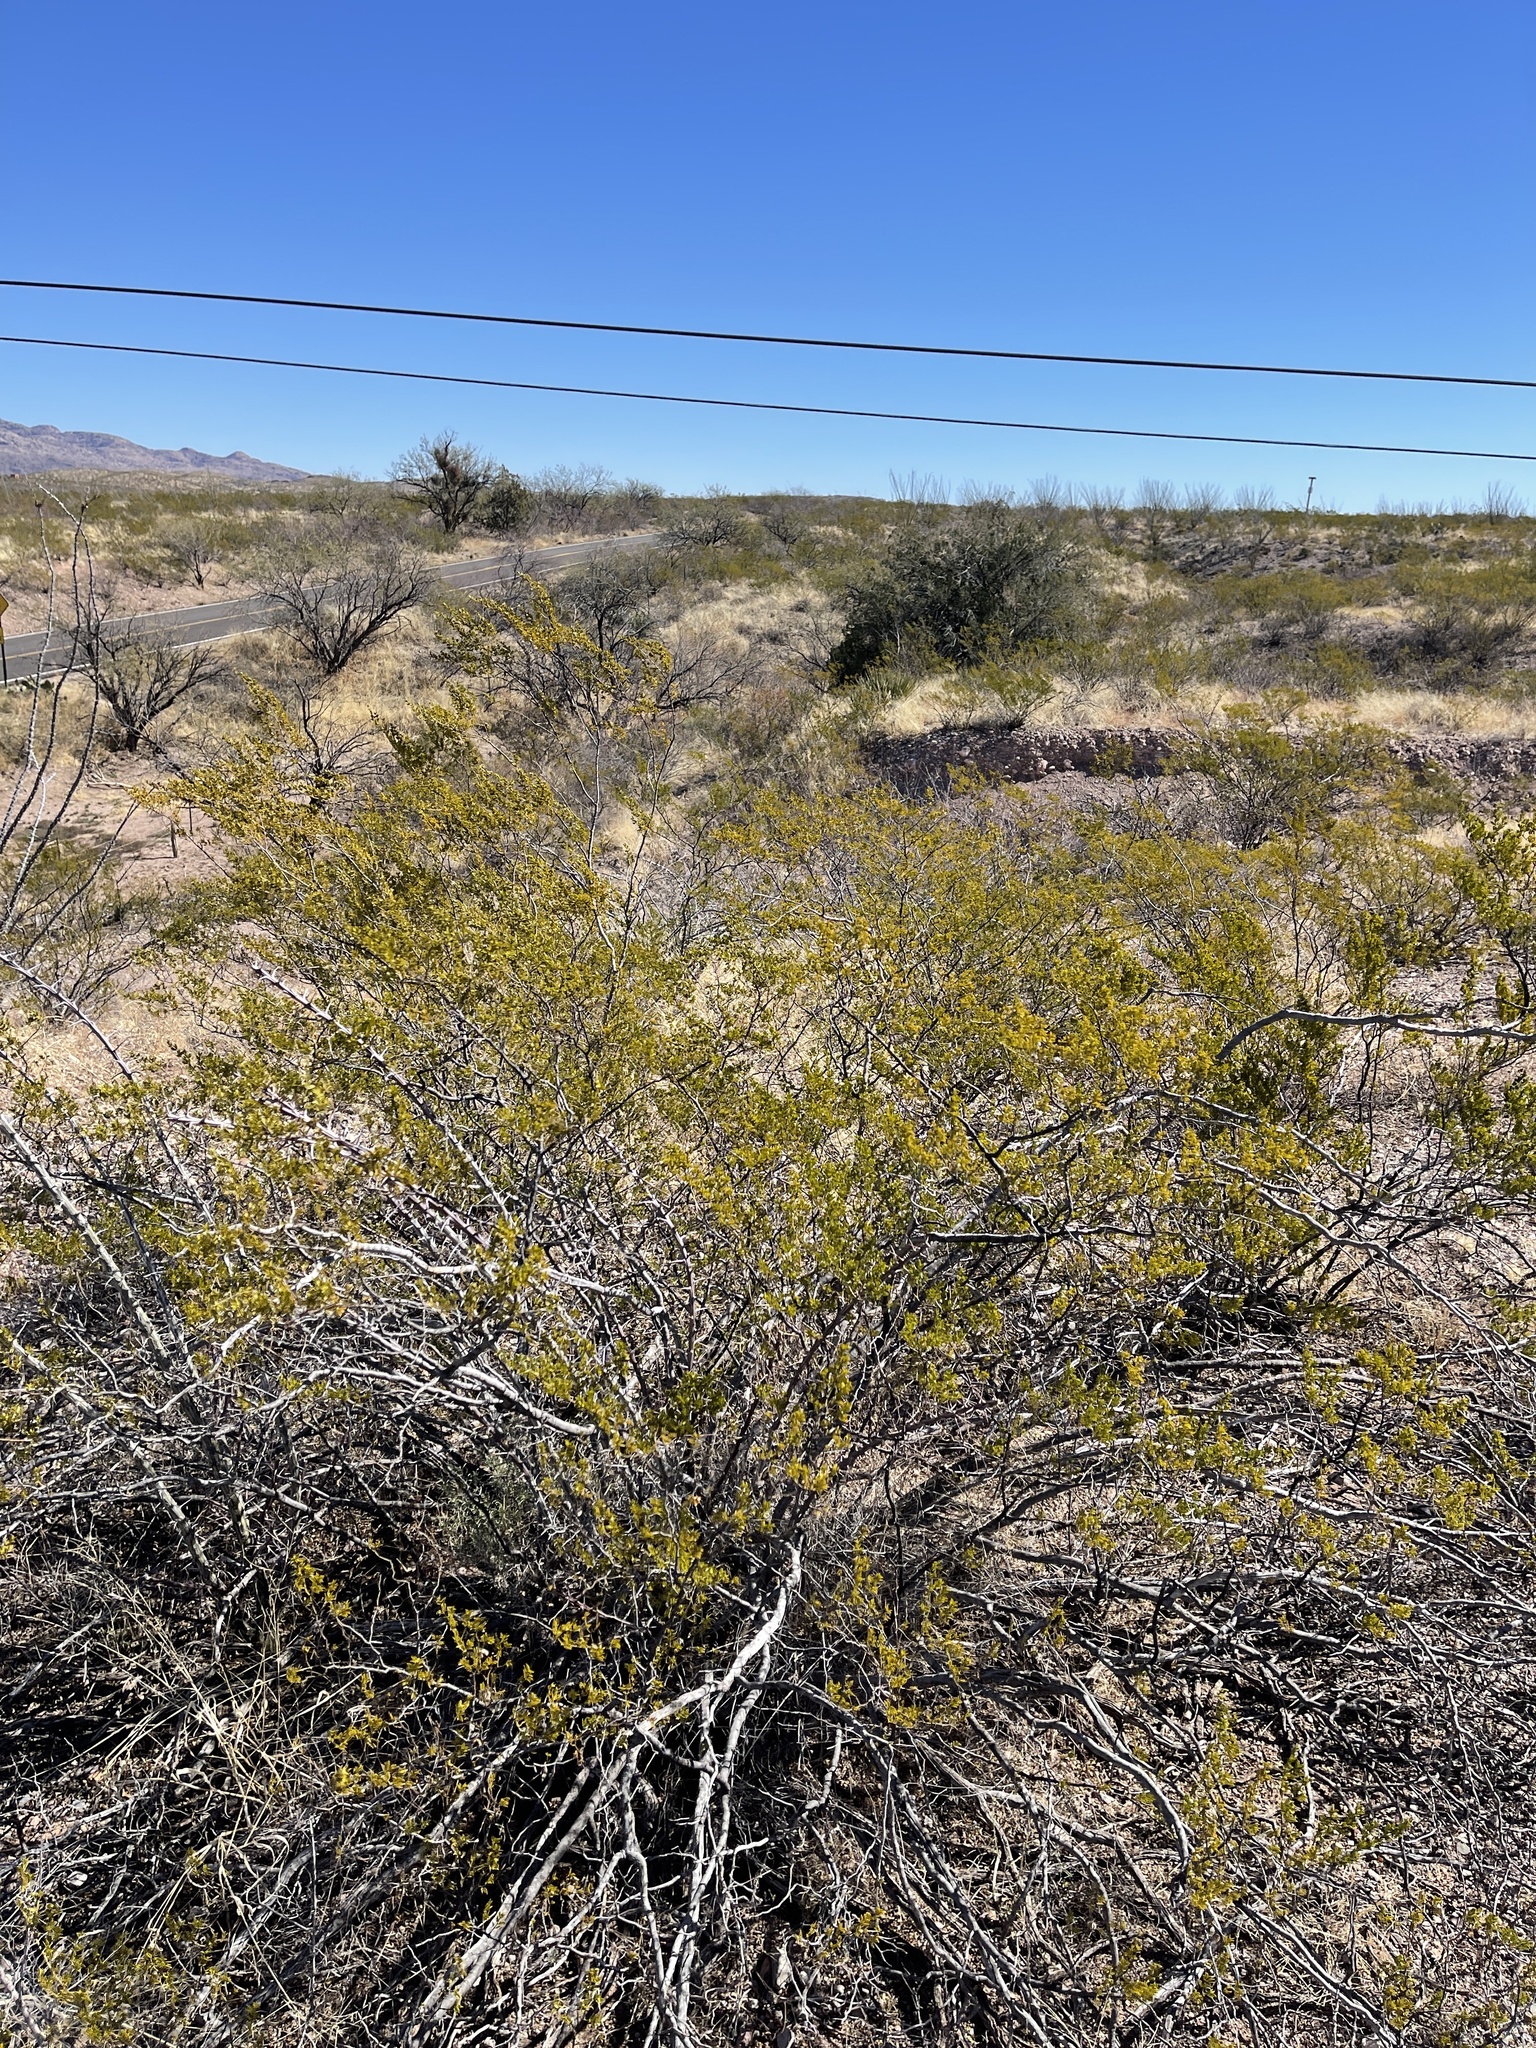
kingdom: Plantae
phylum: Tracheophyta
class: Magnoliopsida
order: Zygophyllales
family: Zygophyllaceae
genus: Larrea
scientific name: Larrea tridentata
